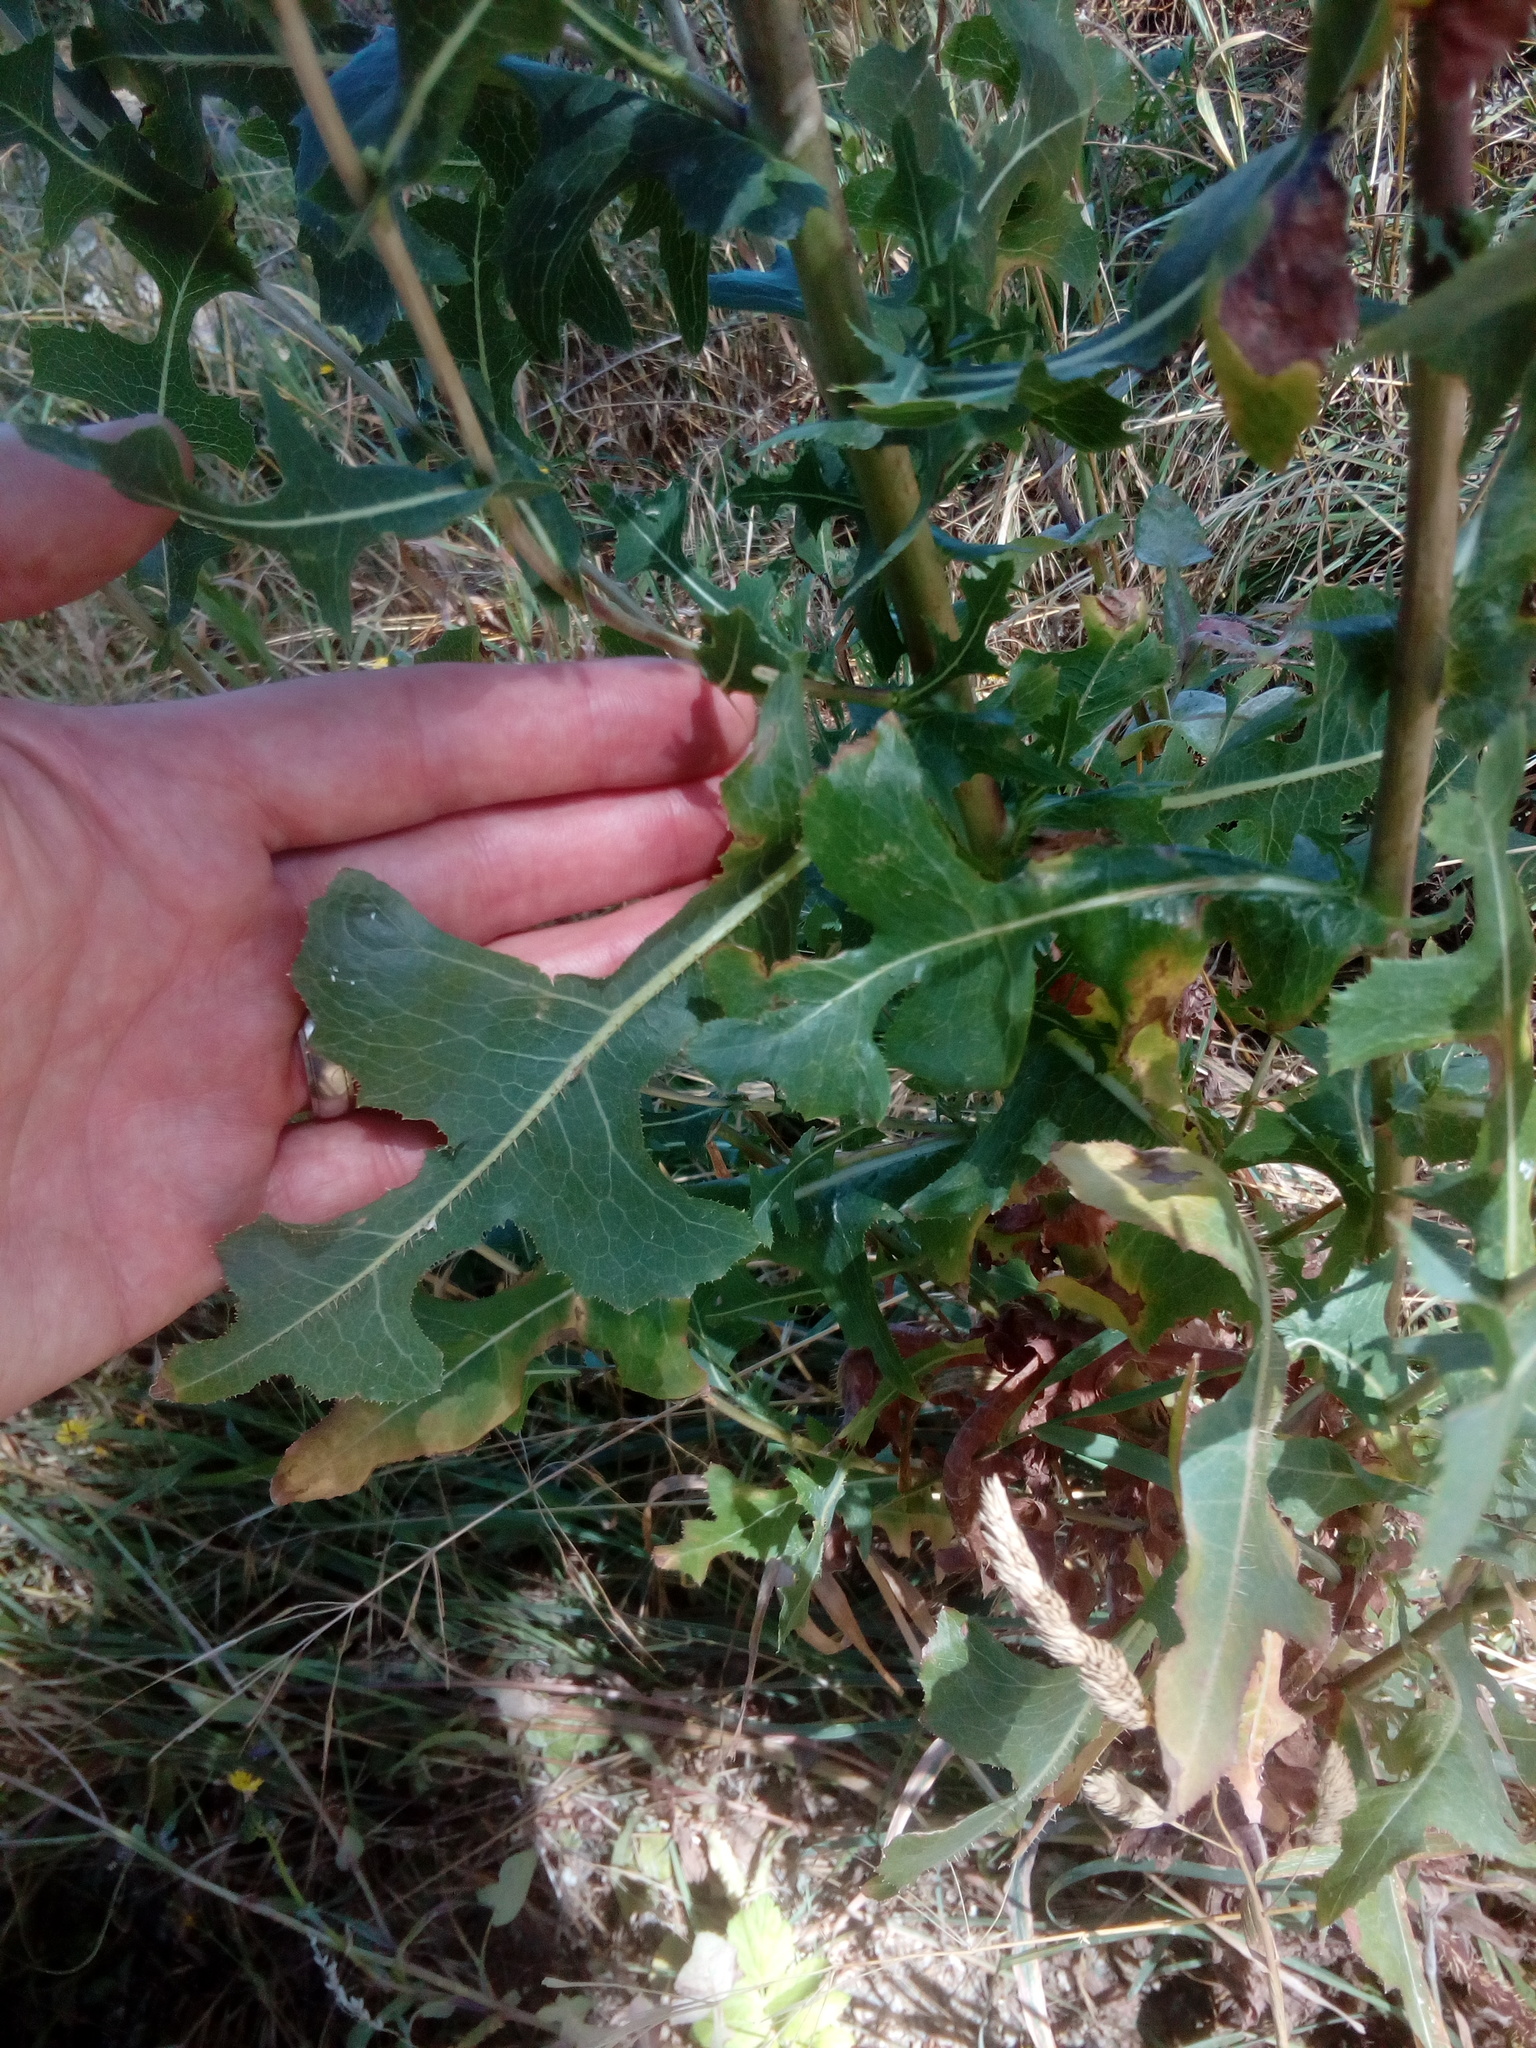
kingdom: Plantae
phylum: Tracheophyta
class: Magnoliopsida
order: Asterales
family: Asteraceae
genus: Lactuca
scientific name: Lactuca serriola
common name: Prickly lettuce
